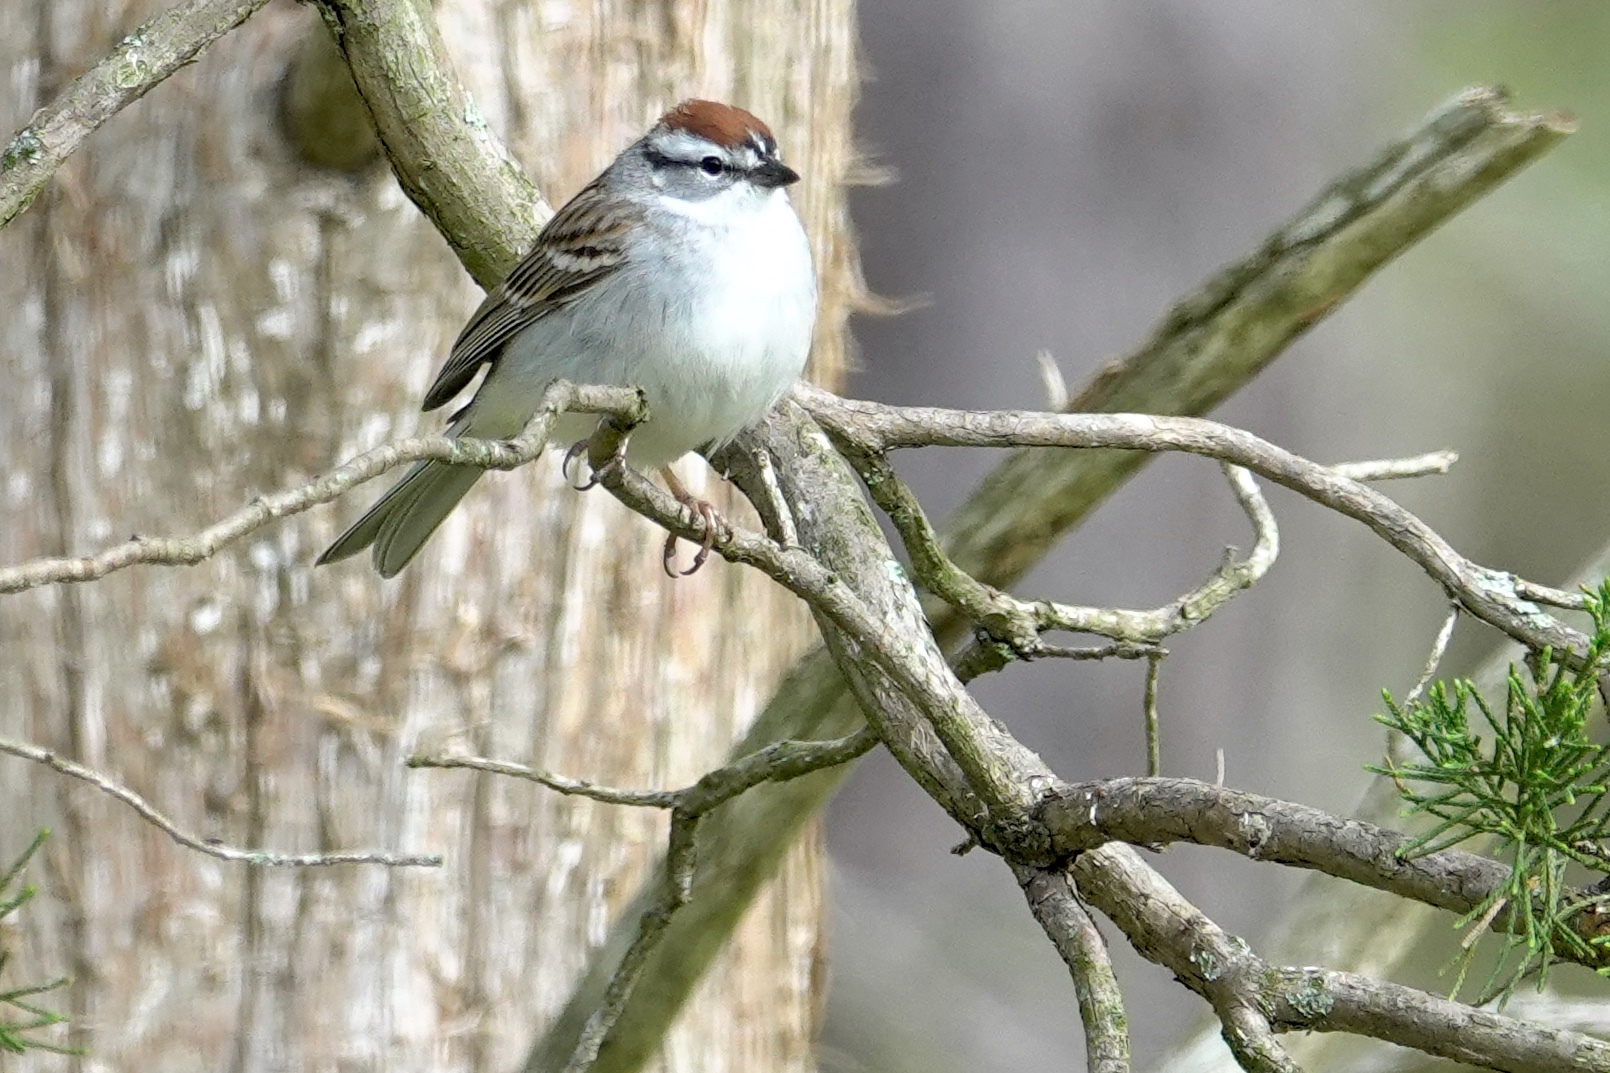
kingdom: Animalia
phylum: Chordata
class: Aves
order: Passeriformes
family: Passerellidae
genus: Spizella
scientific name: Spizella passerina
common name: Chipping sparrow
